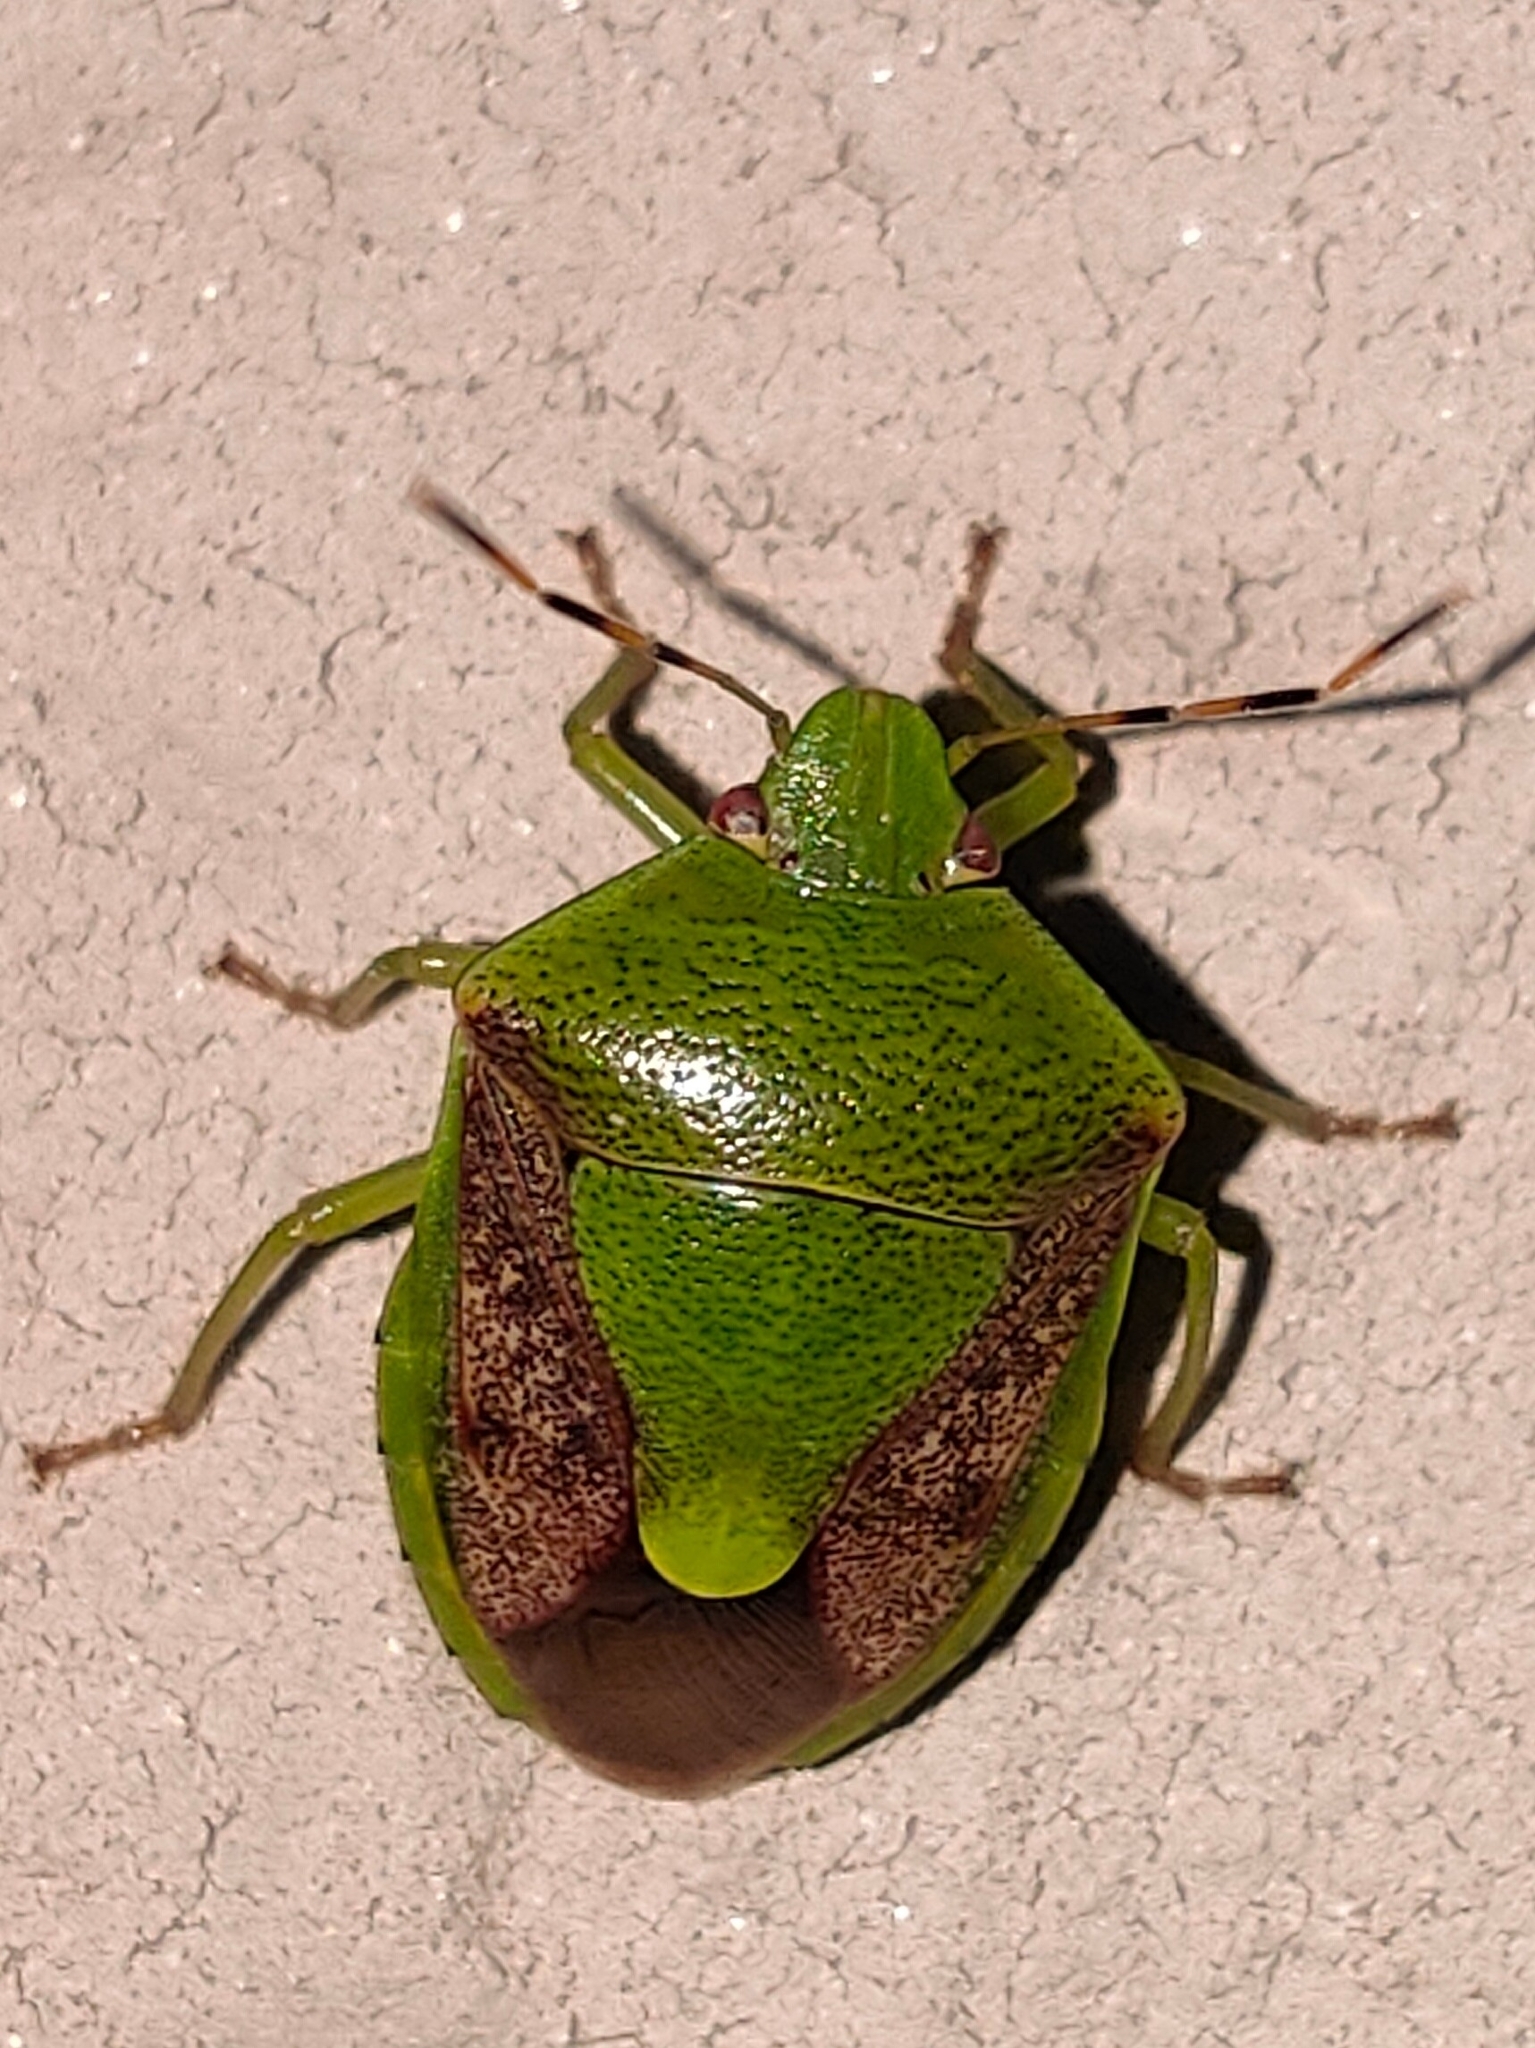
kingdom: Animalia
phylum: Arthropoda
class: Insecta
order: Hemiptera
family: Pentatomidae
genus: Plautia
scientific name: Plautia stali
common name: Stink bug
